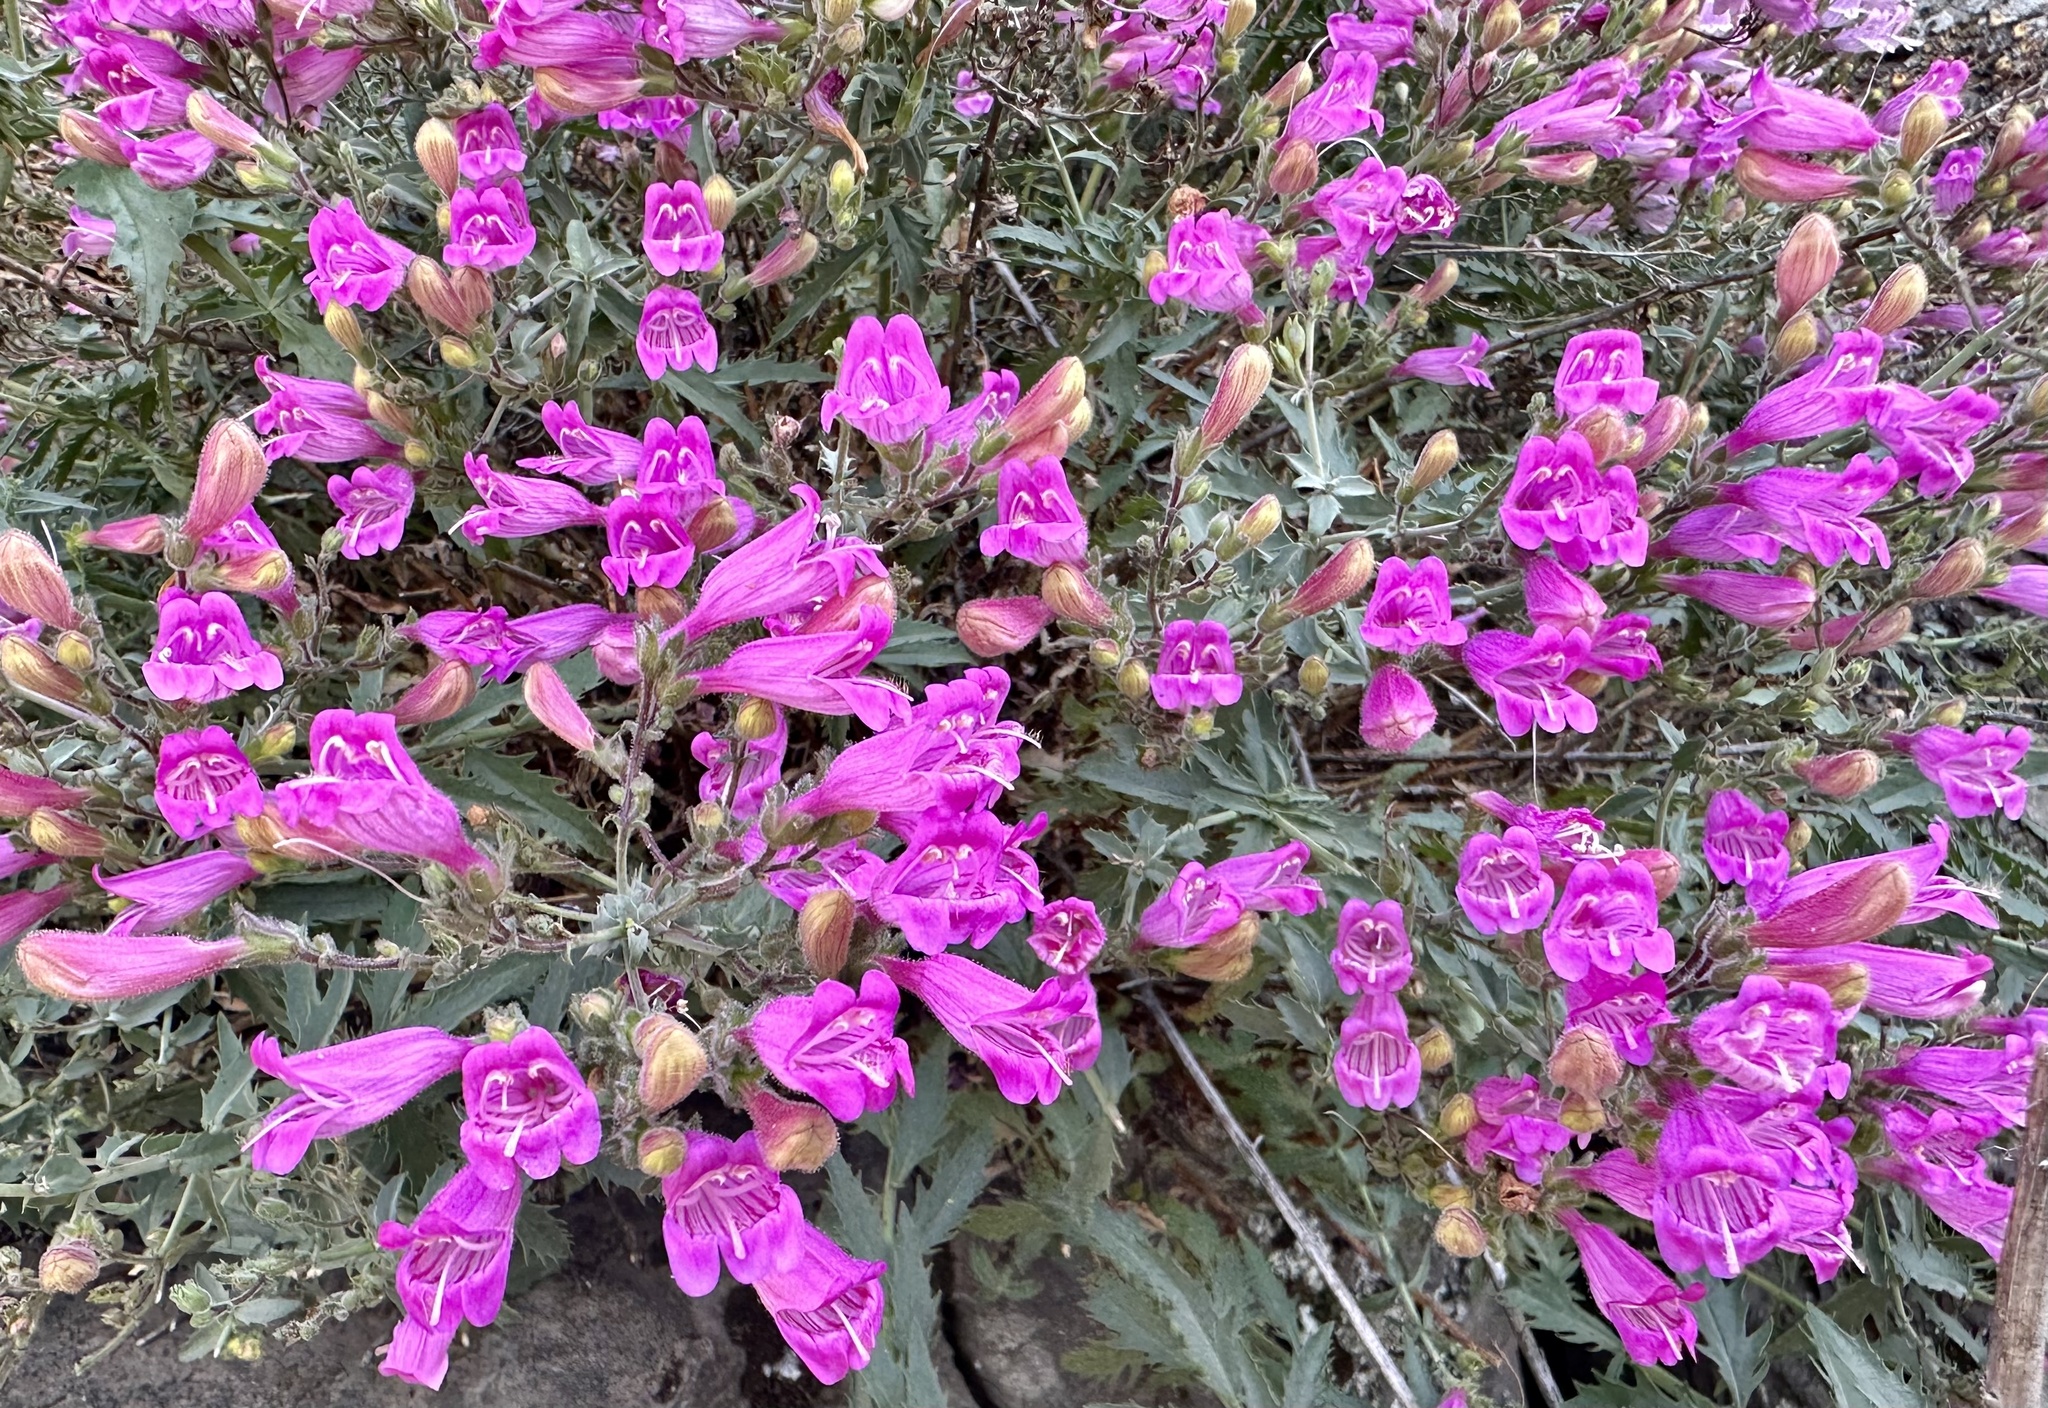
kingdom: Plantae
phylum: Tracheophyta
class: Magnoliopsida
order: Lamiales
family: Plantaginaceae
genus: Penstemon
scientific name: Penstemon richardsonii
